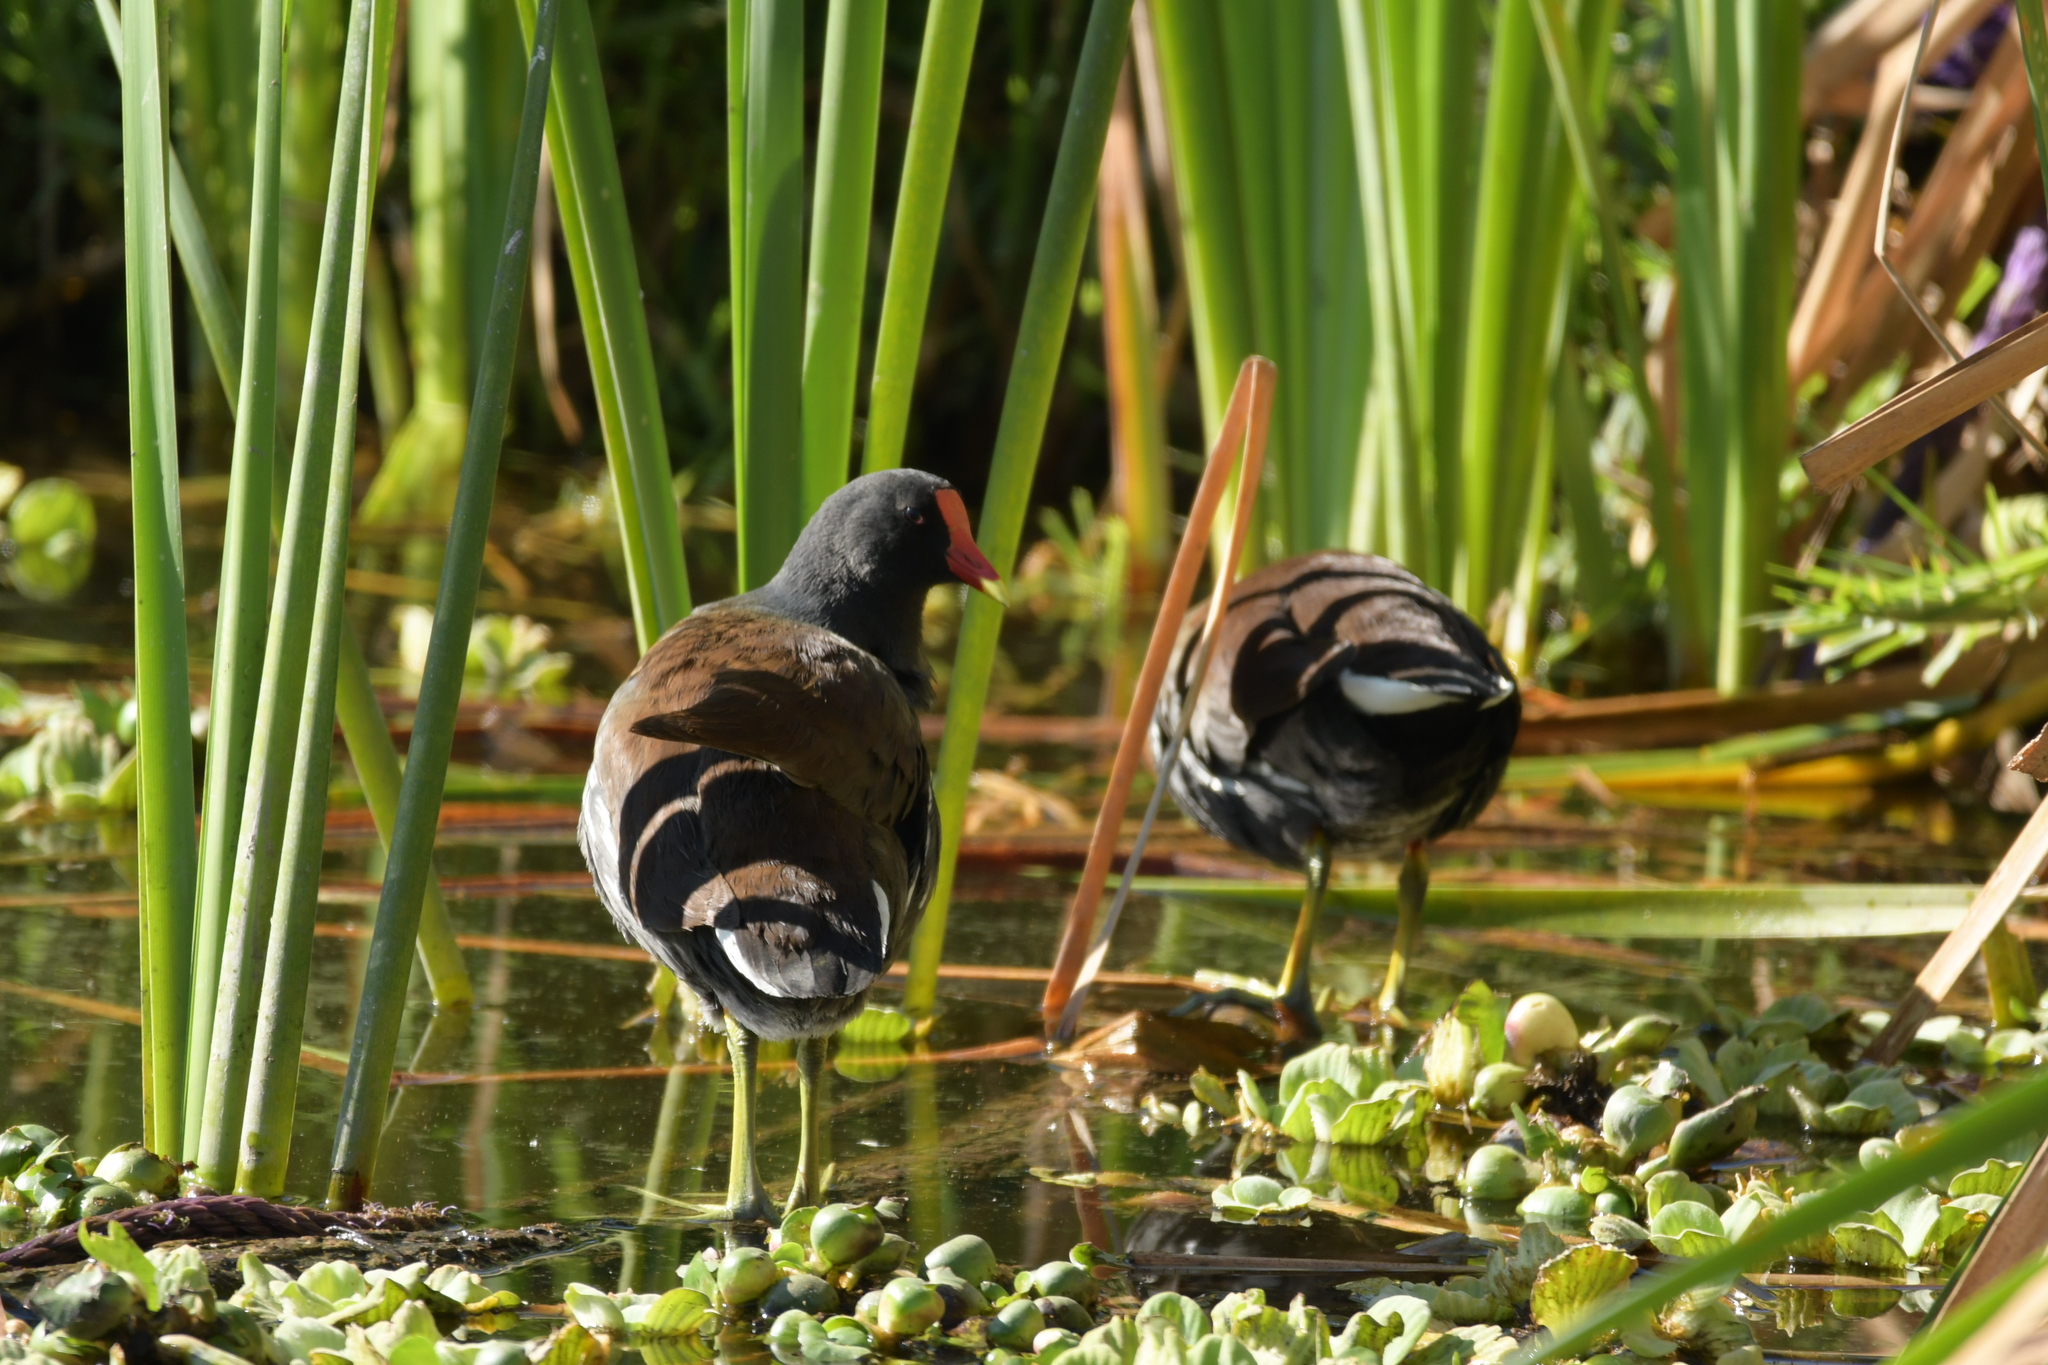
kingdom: Animalia
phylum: Chordata
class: Aves
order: Gruiformes
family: Rallidae
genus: Gallinula
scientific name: Gallinula chloropus
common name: Common moorhen
